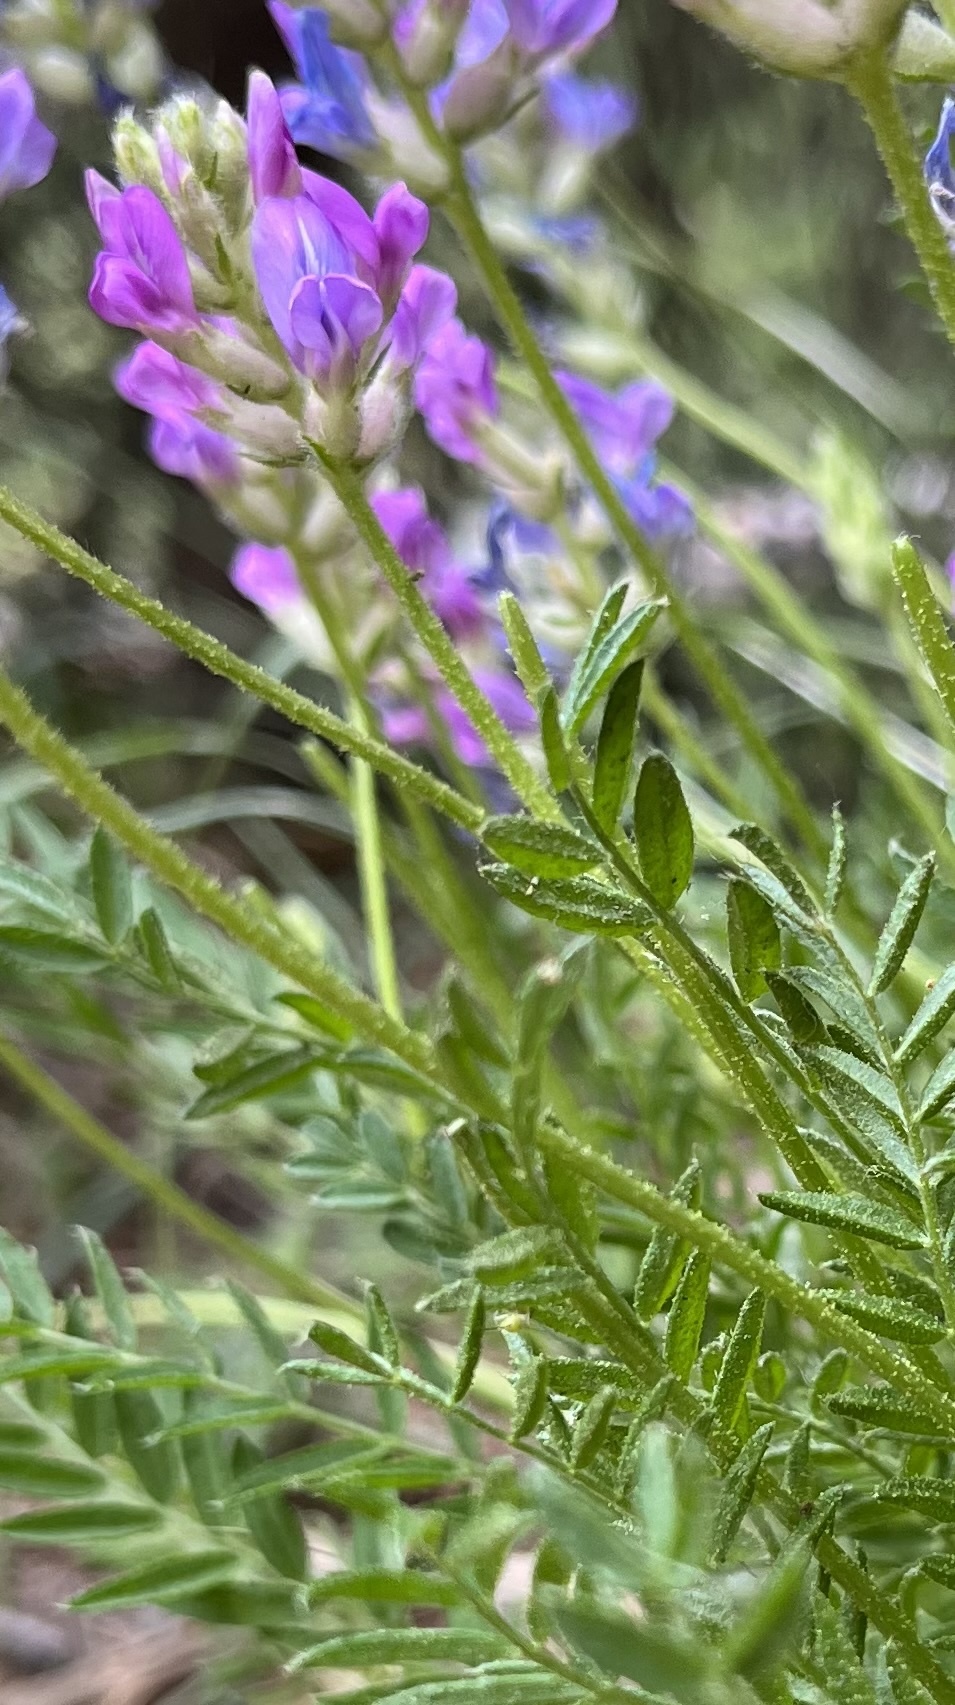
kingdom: Plantae
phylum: Tracheophyta
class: Magnoliopsida
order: Fabales
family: Fabaceae
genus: Oxytropis
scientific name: Oxytropis borealis
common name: Boreal locoweed
